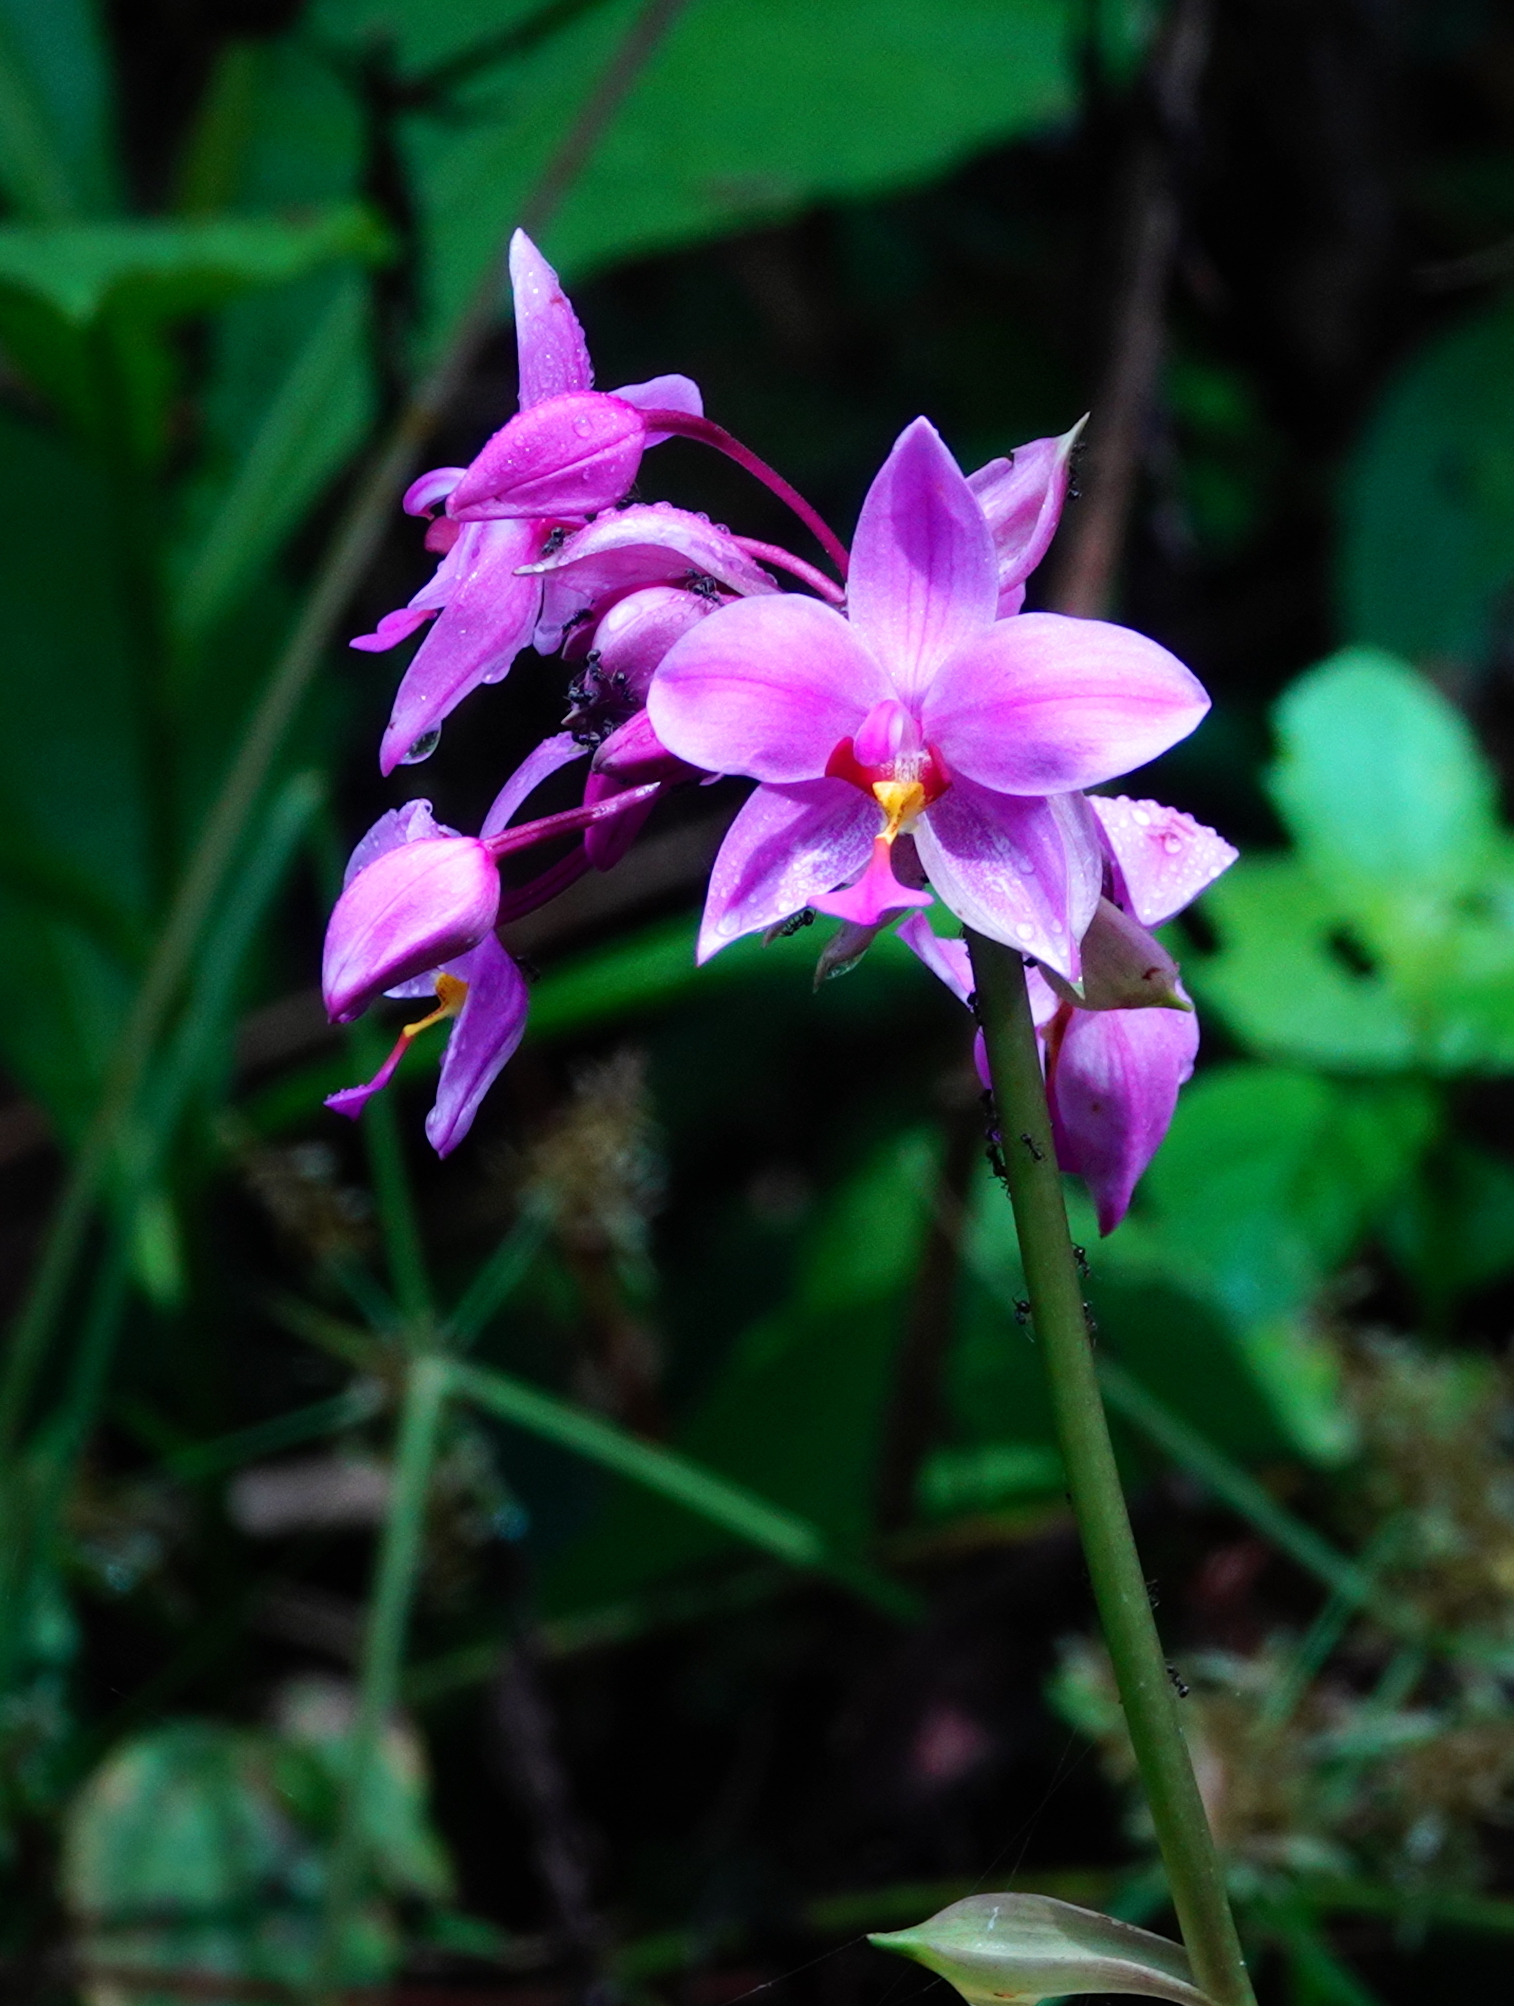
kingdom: Plantae
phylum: Tracheophyta
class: Liliopsida
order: Asparagales
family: Orchidaceae
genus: Spathoglottis
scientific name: Spathoglottis plicata
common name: Philippine ground orchid
